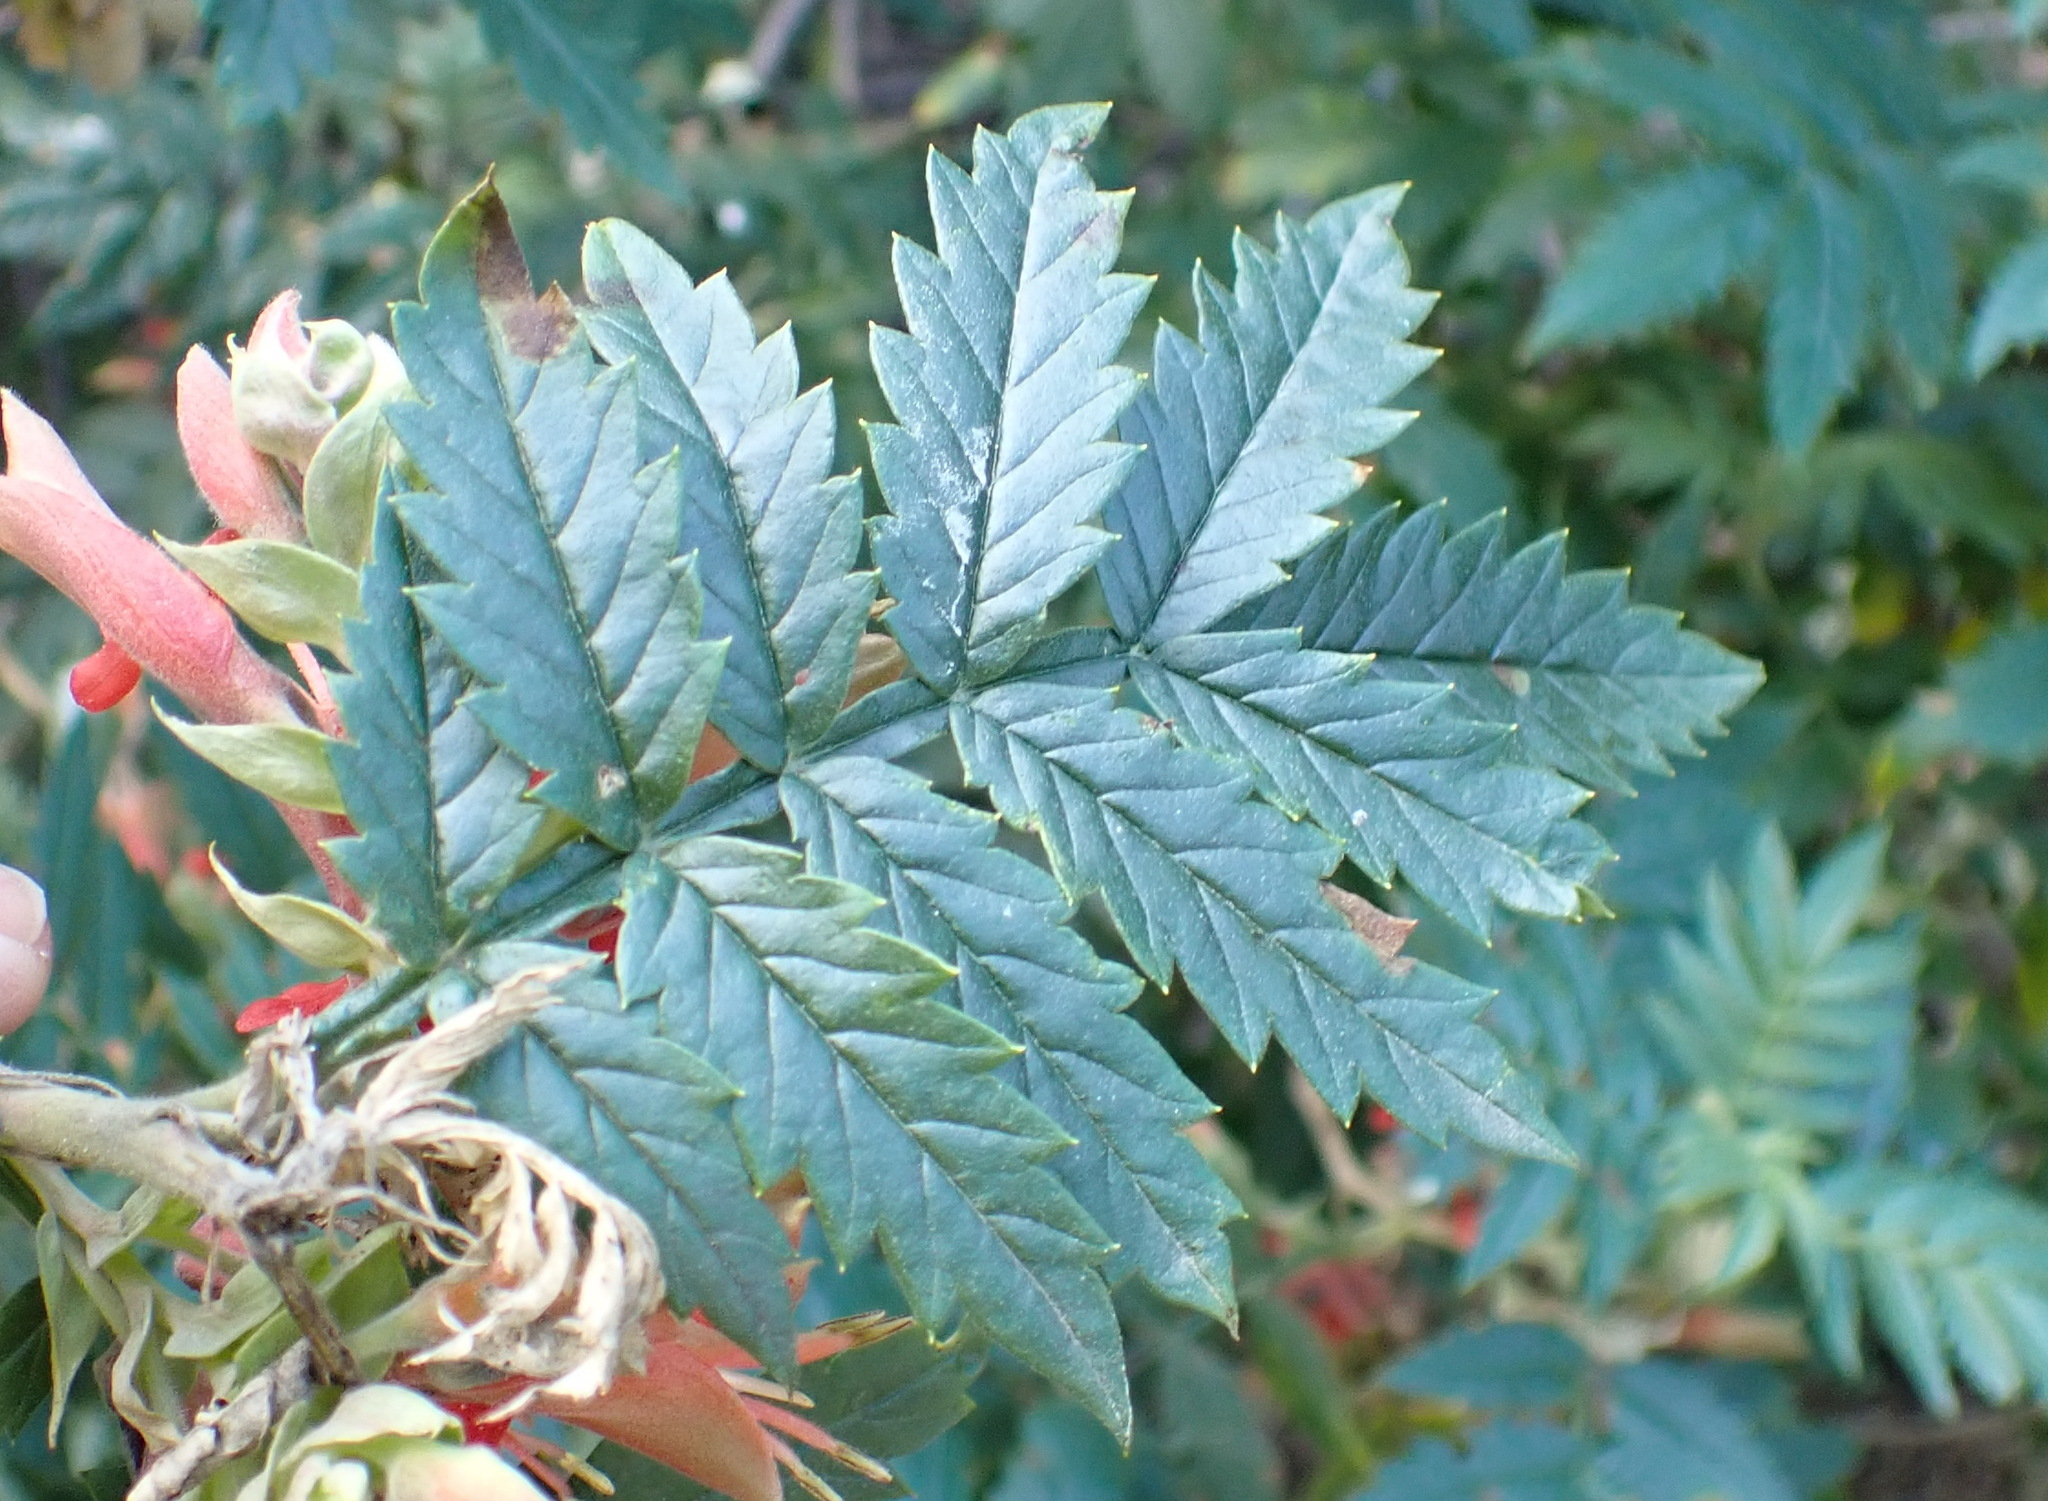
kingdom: Plantae
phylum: Tracheophyta
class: Magnoliopsida
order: Geraniales
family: Melianthaceae
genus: Melianthus
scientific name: Melianthus comosus
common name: Touch-me-not
